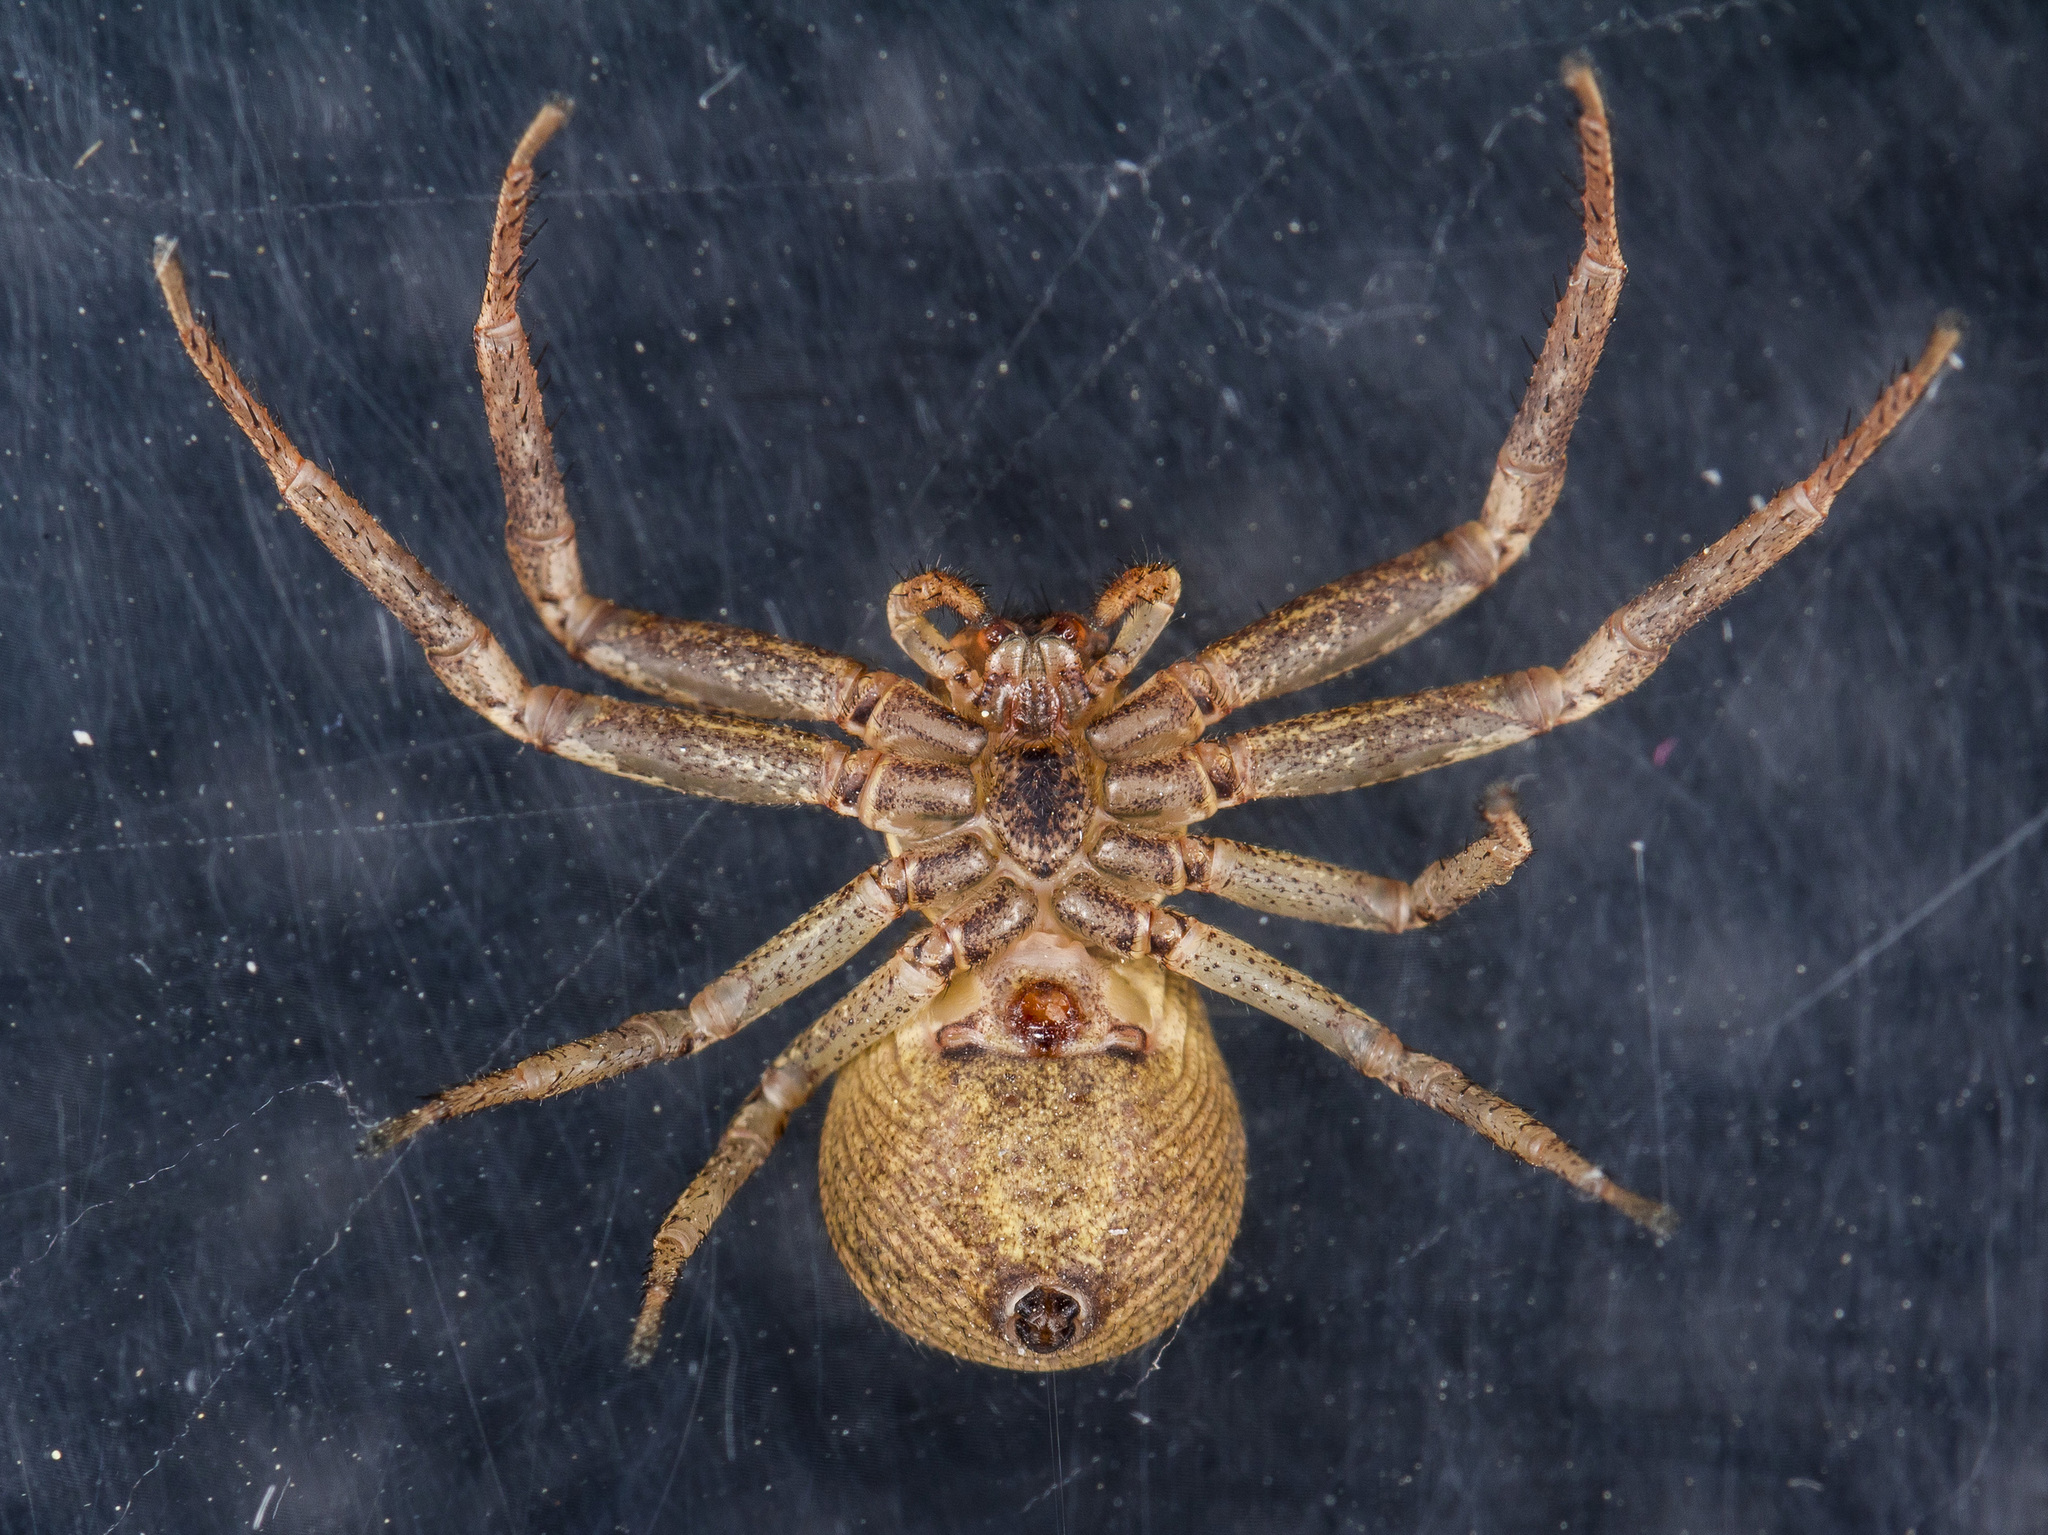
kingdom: Animalia
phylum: Arthropoda
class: Arachnida
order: Araneae
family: Thomisidae
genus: Xysticus
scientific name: Xysticus ephippiatus
